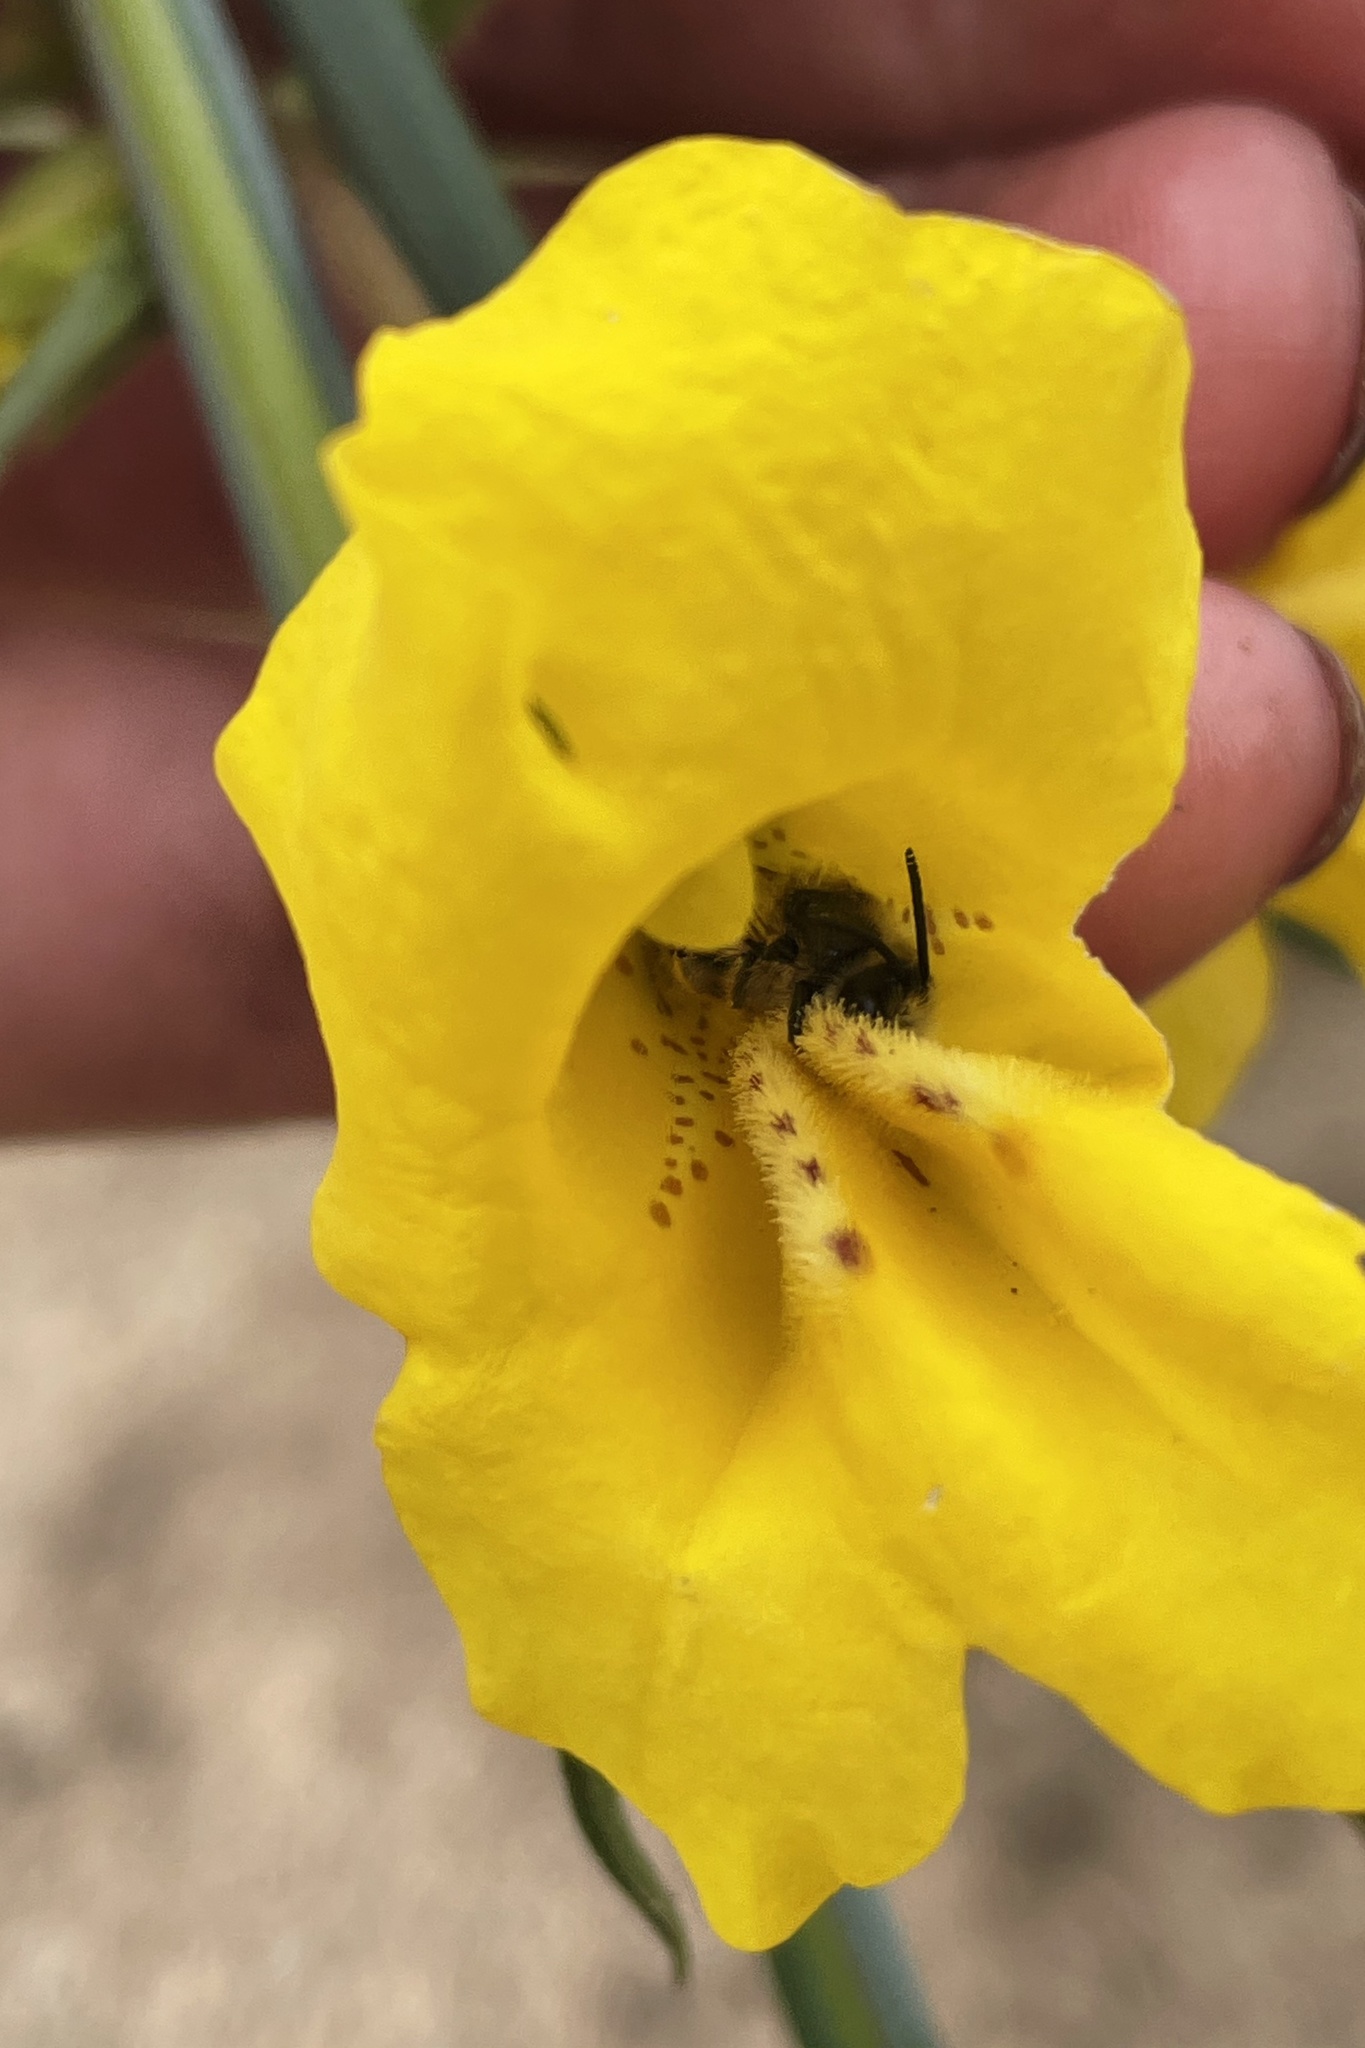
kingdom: Animalia
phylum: Arthropoda
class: Insecta
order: Hymenoptera
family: Andrenidae
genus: Ancylandrena
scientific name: Ancylandrena atoposoma
